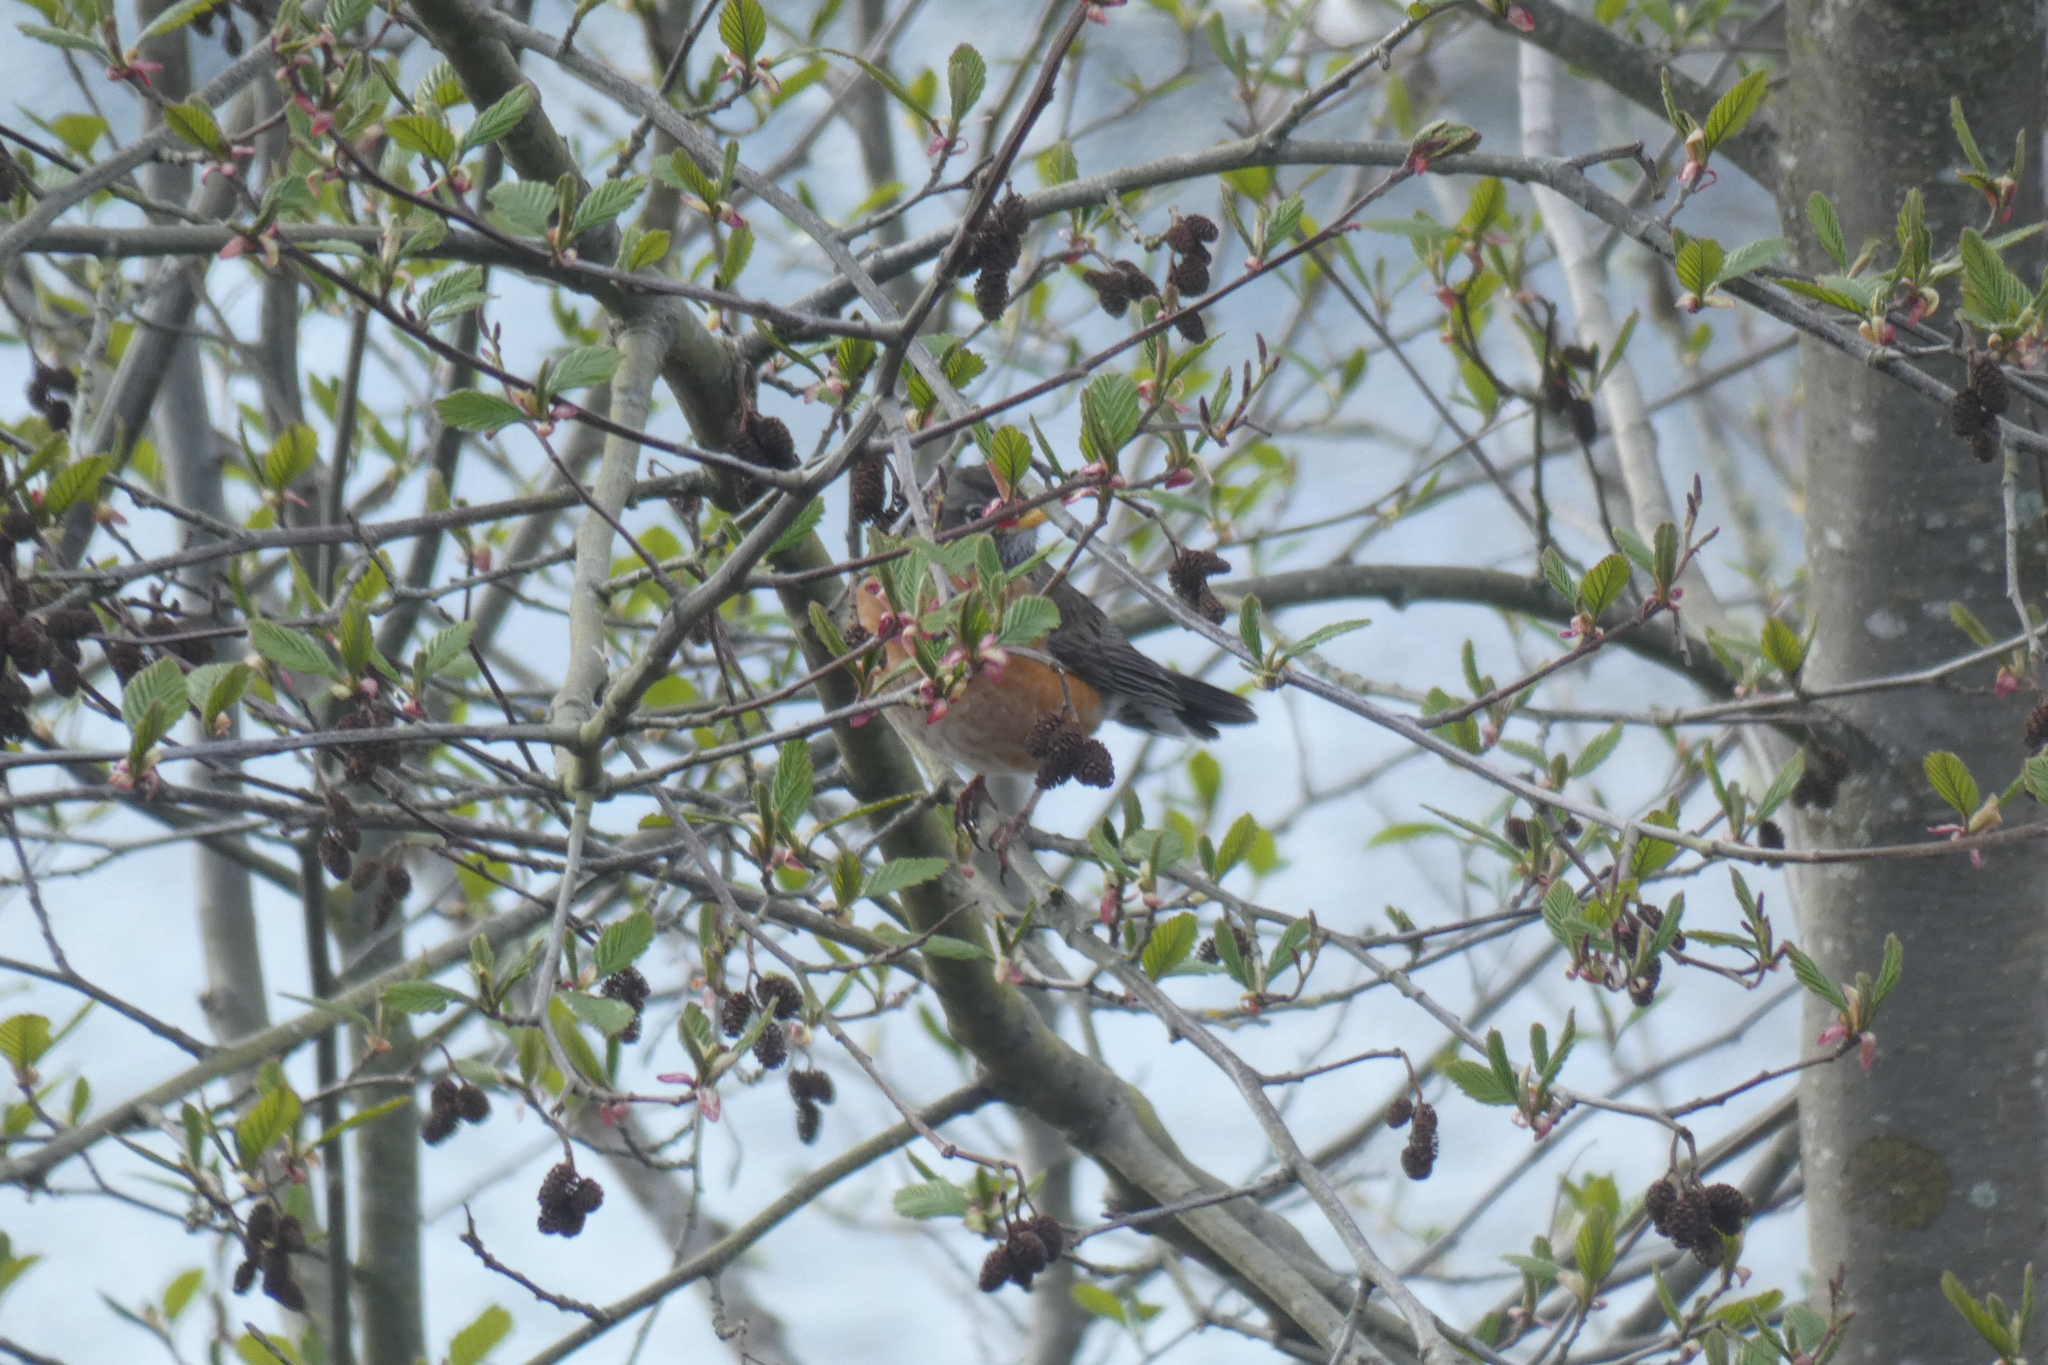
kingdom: Animalia
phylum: Chordata
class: Aves
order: Passeriformes
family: Turdidae
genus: Turdus
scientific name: Turdus migratorius
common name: American robin
